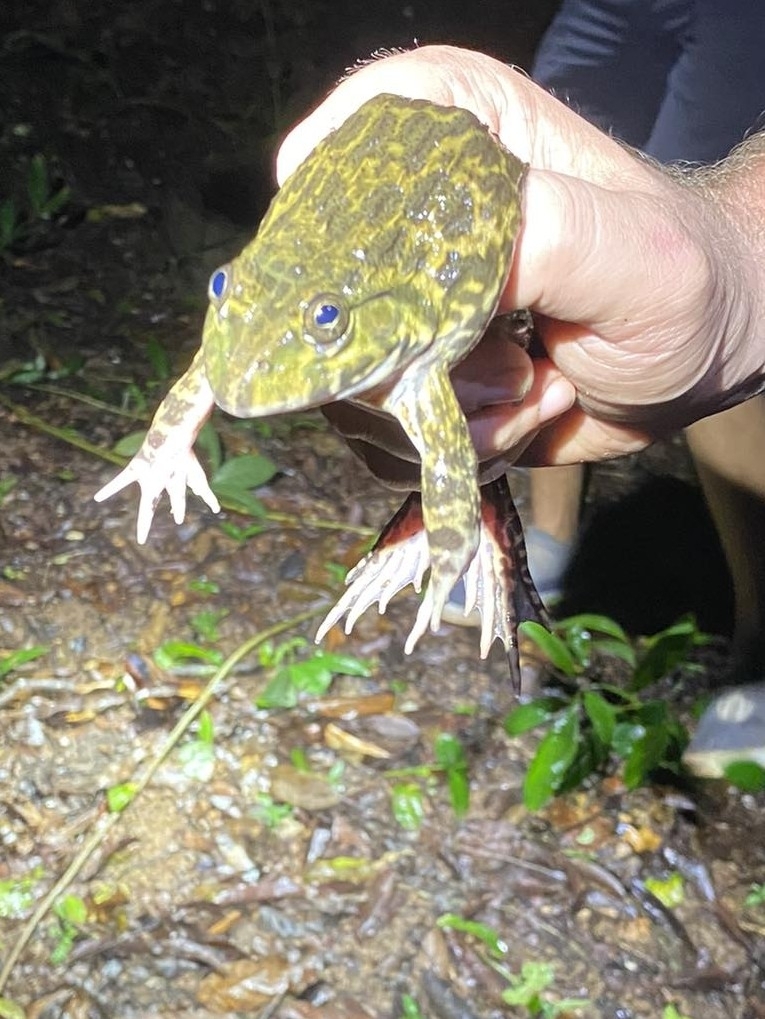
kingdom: Animalia
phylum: Chordata
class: Amphibia
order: Anura
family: Dicroglossidae
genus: Hoplobatrachus
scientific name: Hoplobatrachus rugulosus
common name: Chinese edible frog
